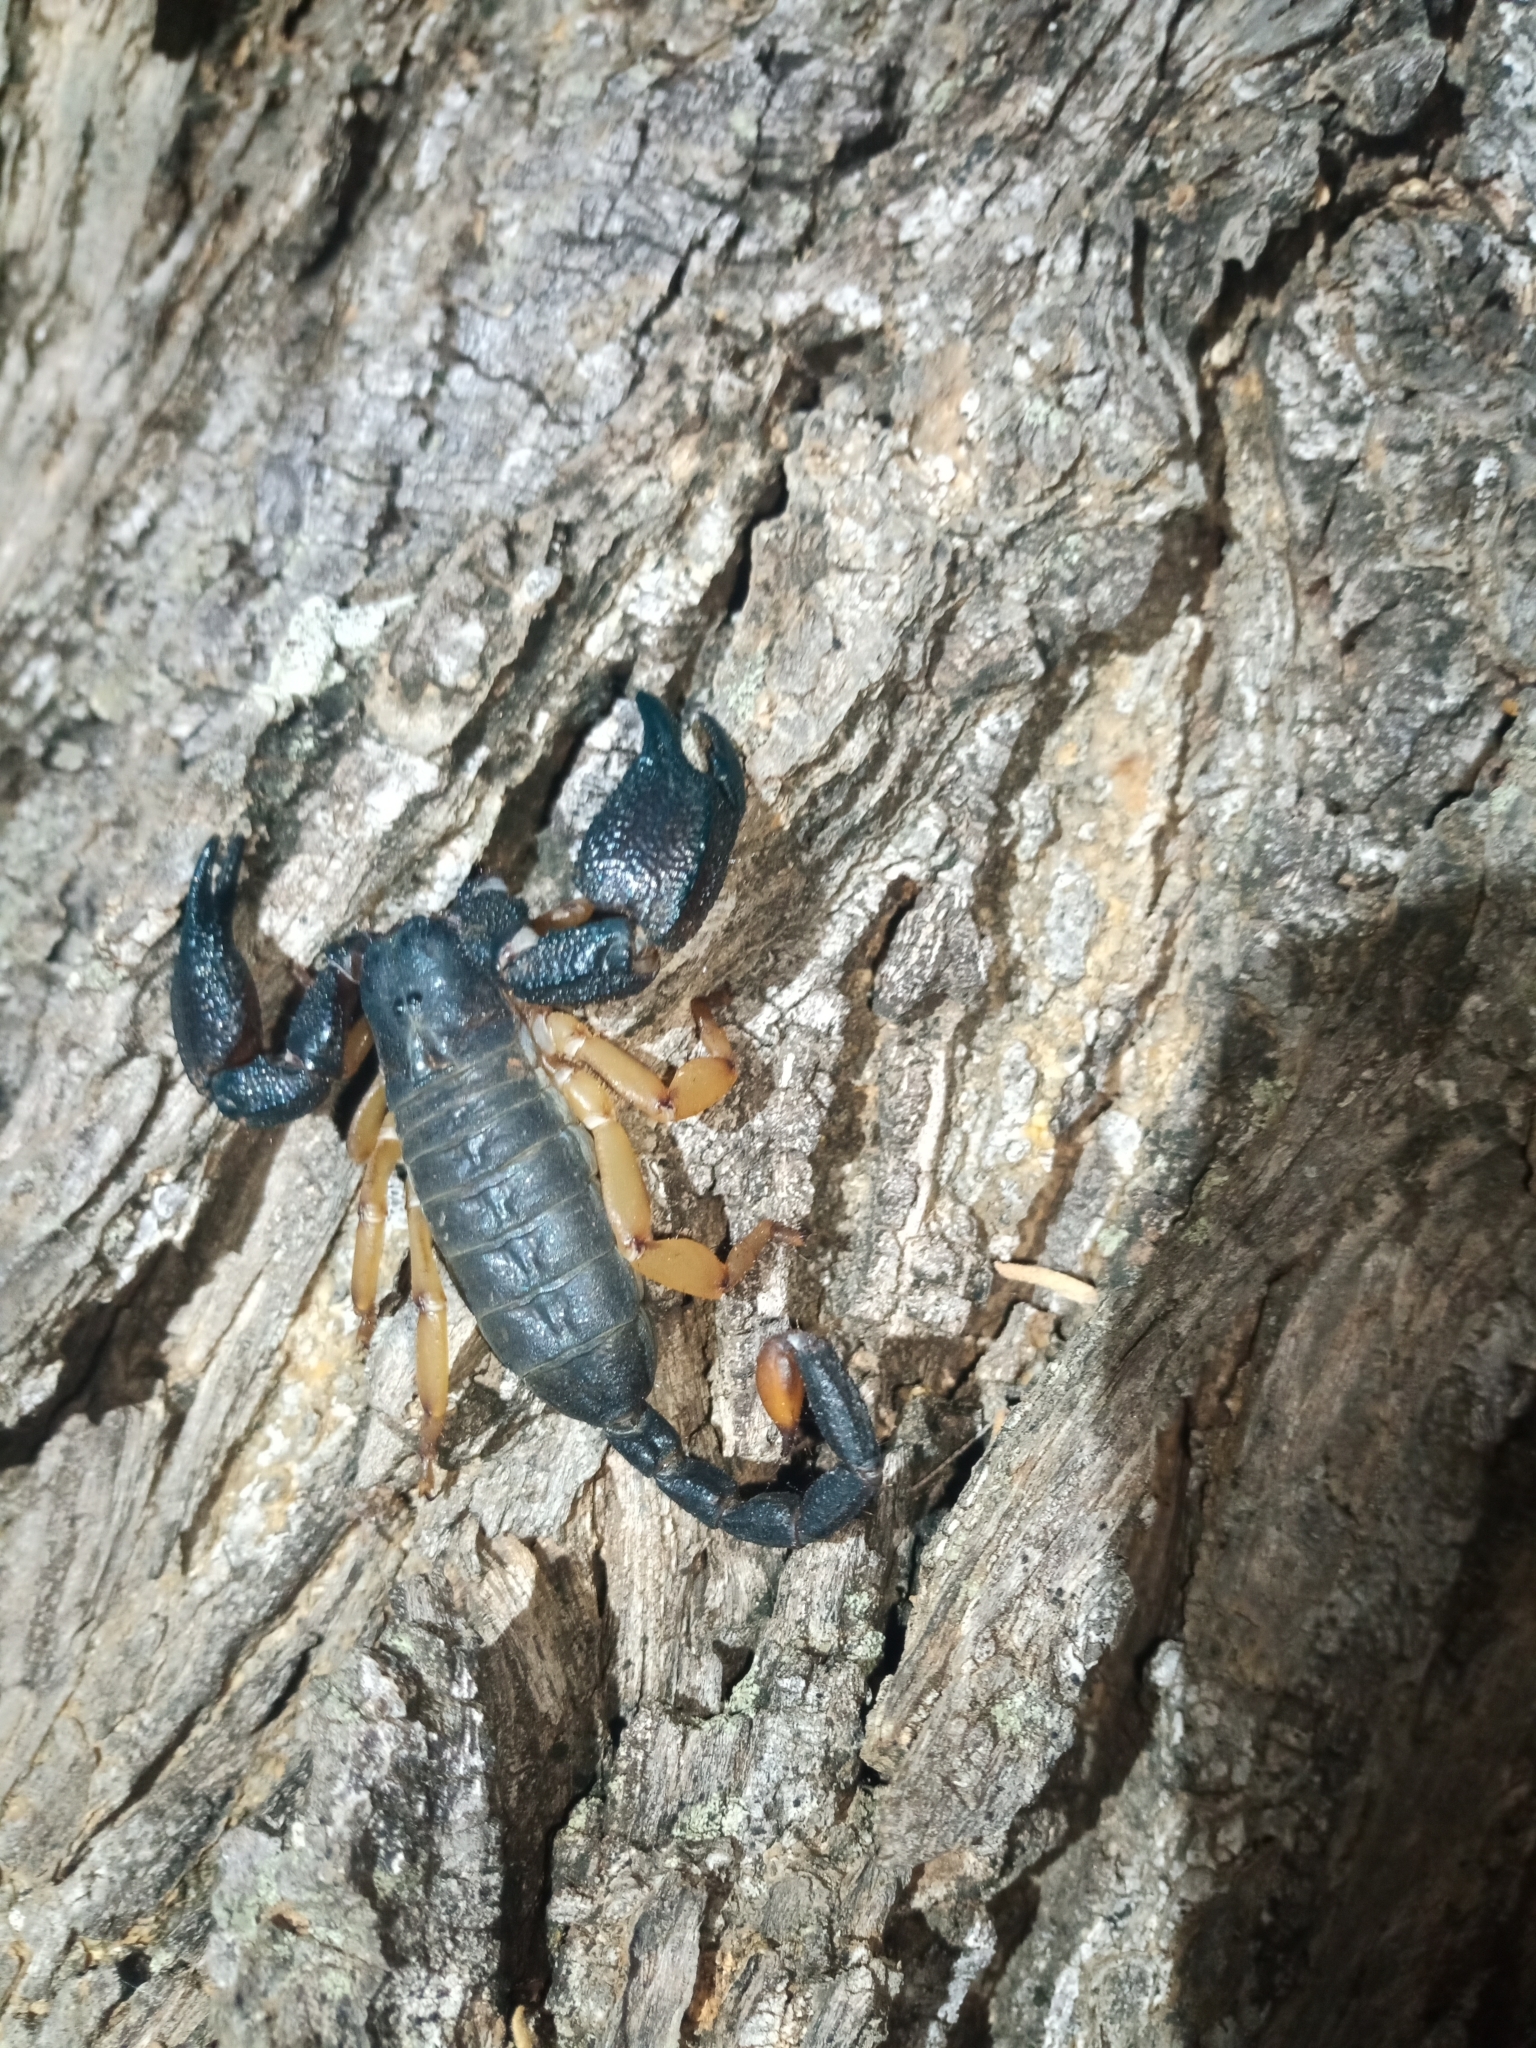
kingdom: Animalia
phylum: Arthropoda
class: Arachnida
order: Scorpiones
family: Hormuridae
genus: Opisthacanthus
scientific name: Opisthacanthus asper
